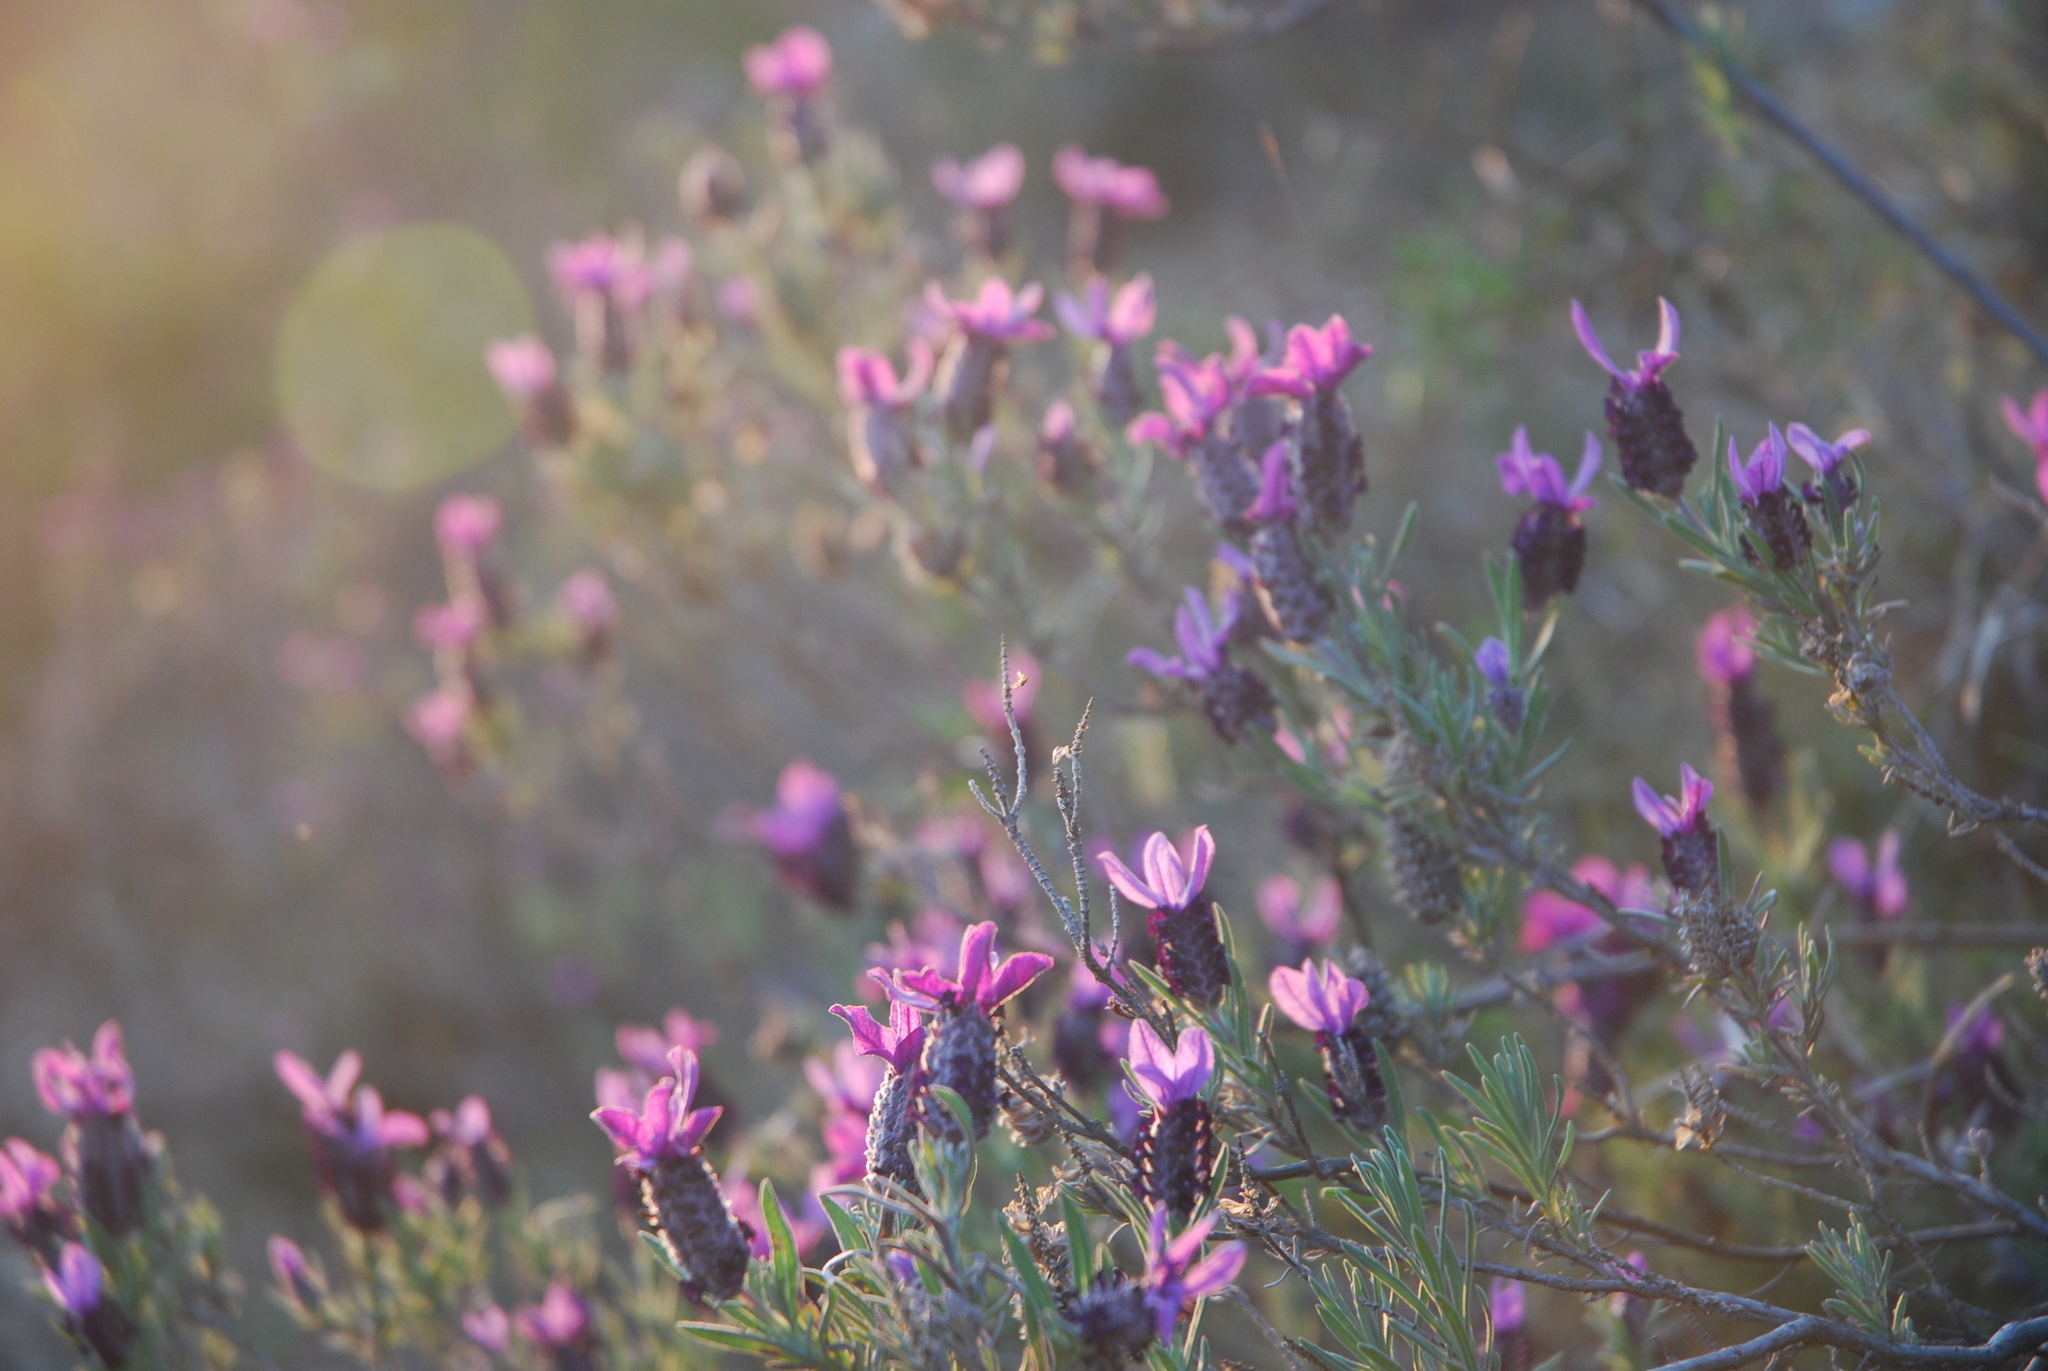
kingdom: Plantae
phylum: Tracheophyta
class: Magnoliopsida
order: Lamiales
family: Lamiaceae
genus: Lavandula
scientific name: Lavandula stoechas
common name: French lavender
